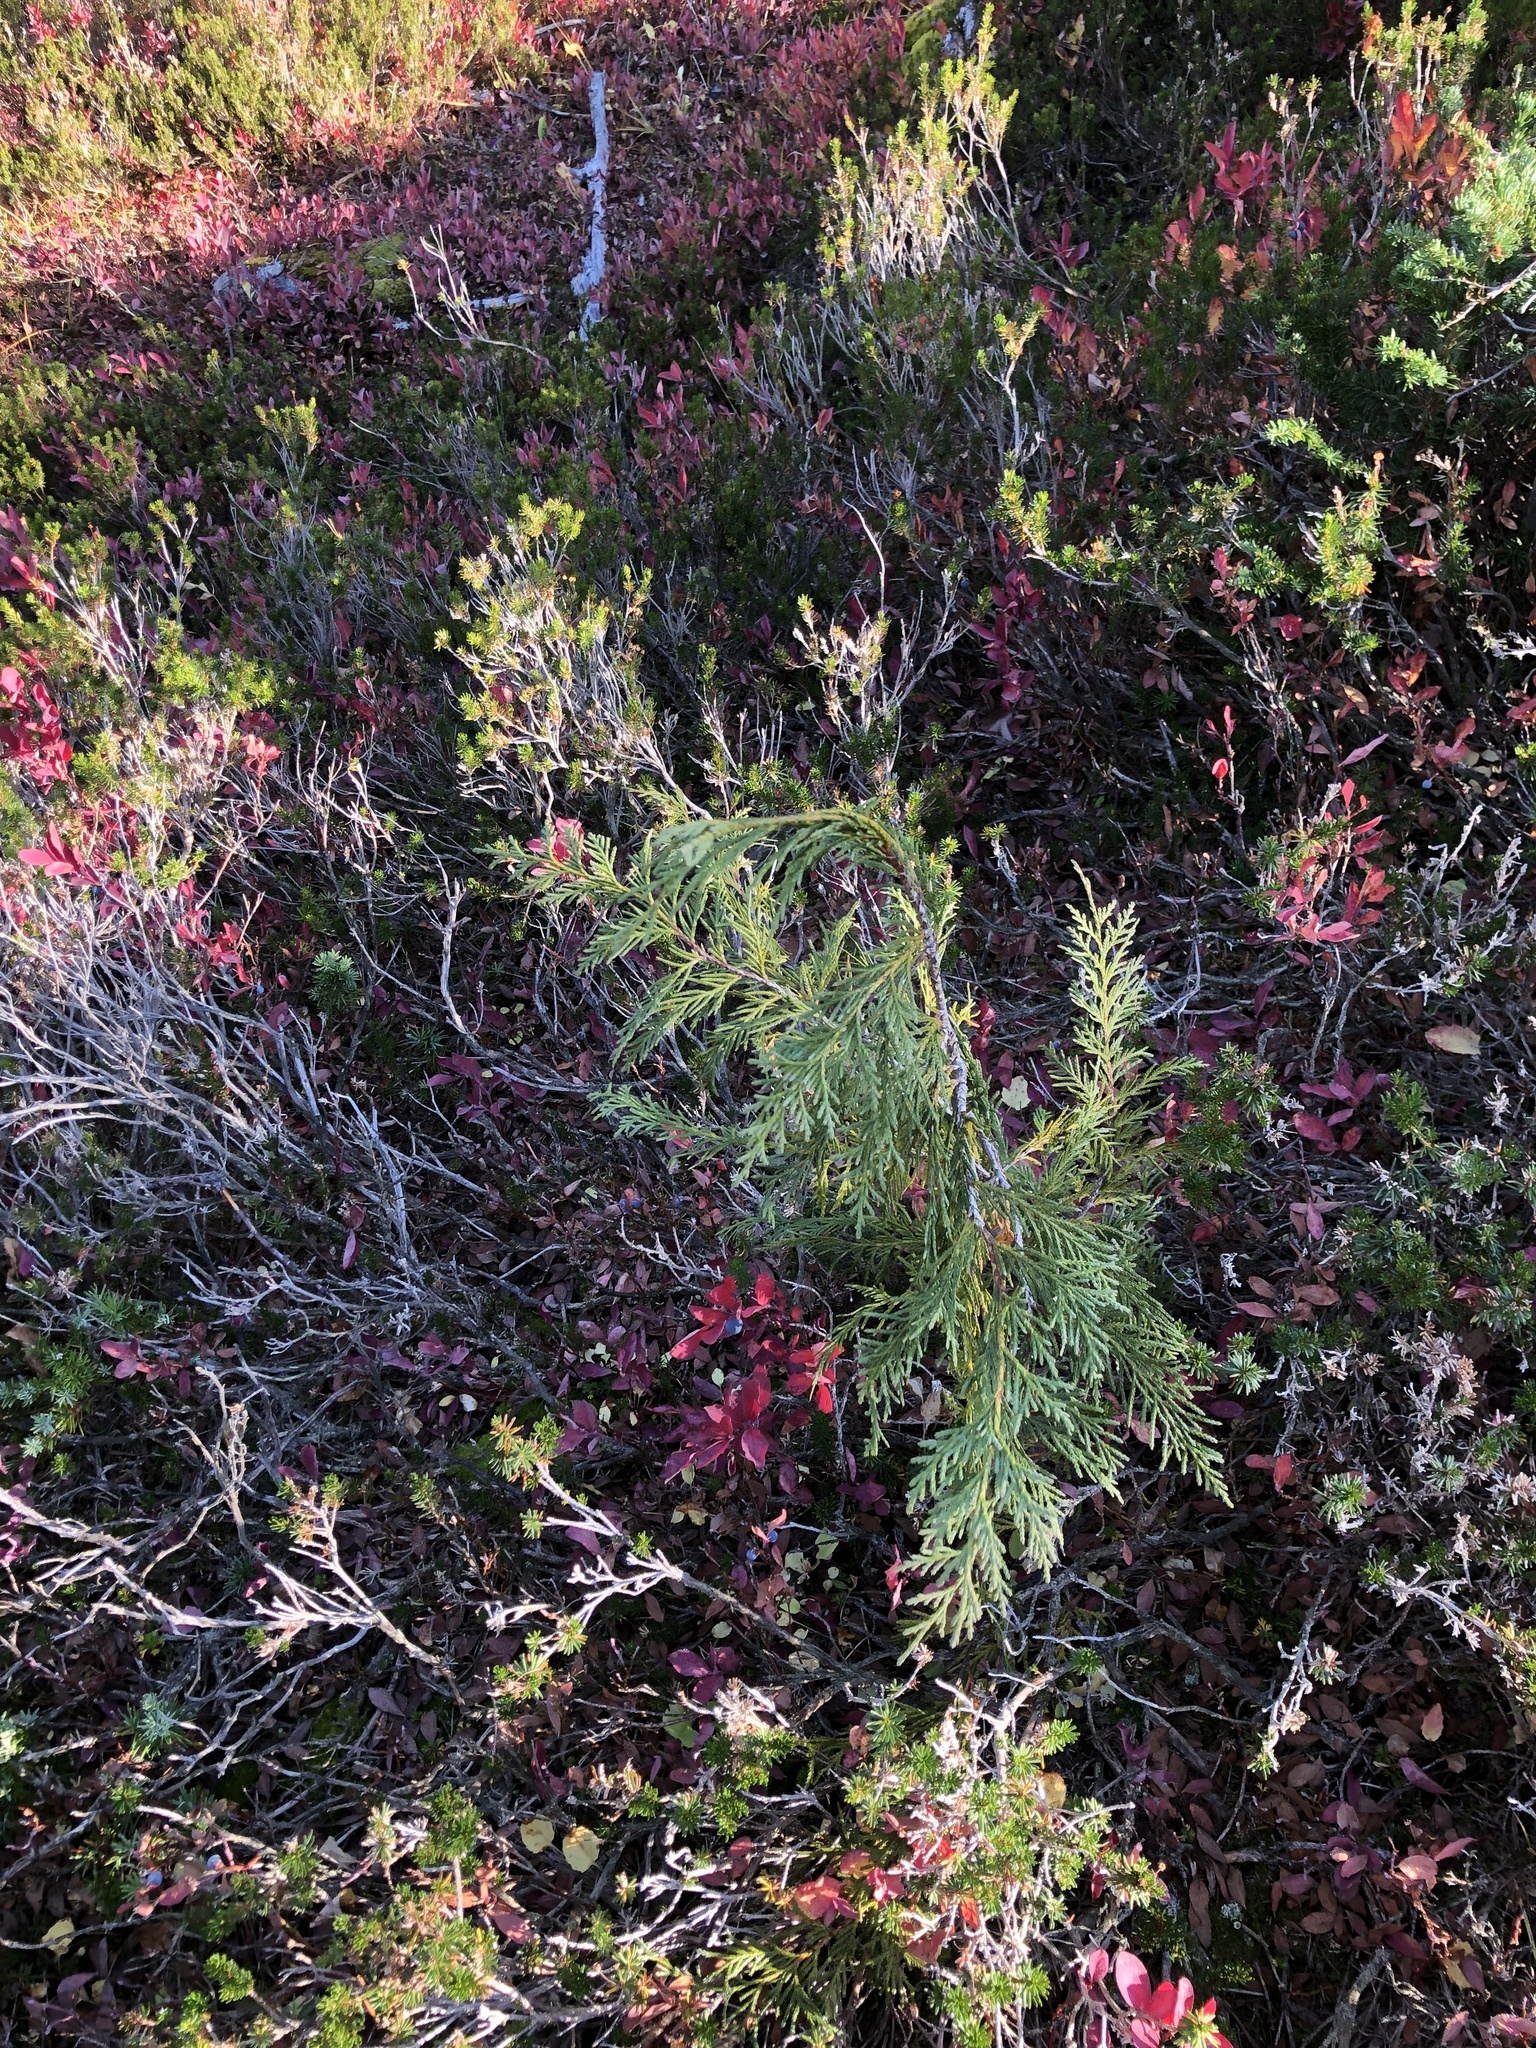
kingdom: Plantae
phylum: Tracheophyta
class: Pinopsida
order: Pinales
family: Cupressaceae
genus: Xanthocyparis
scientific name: Xanthocyparis nootkatensis
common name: Nootka cypress
